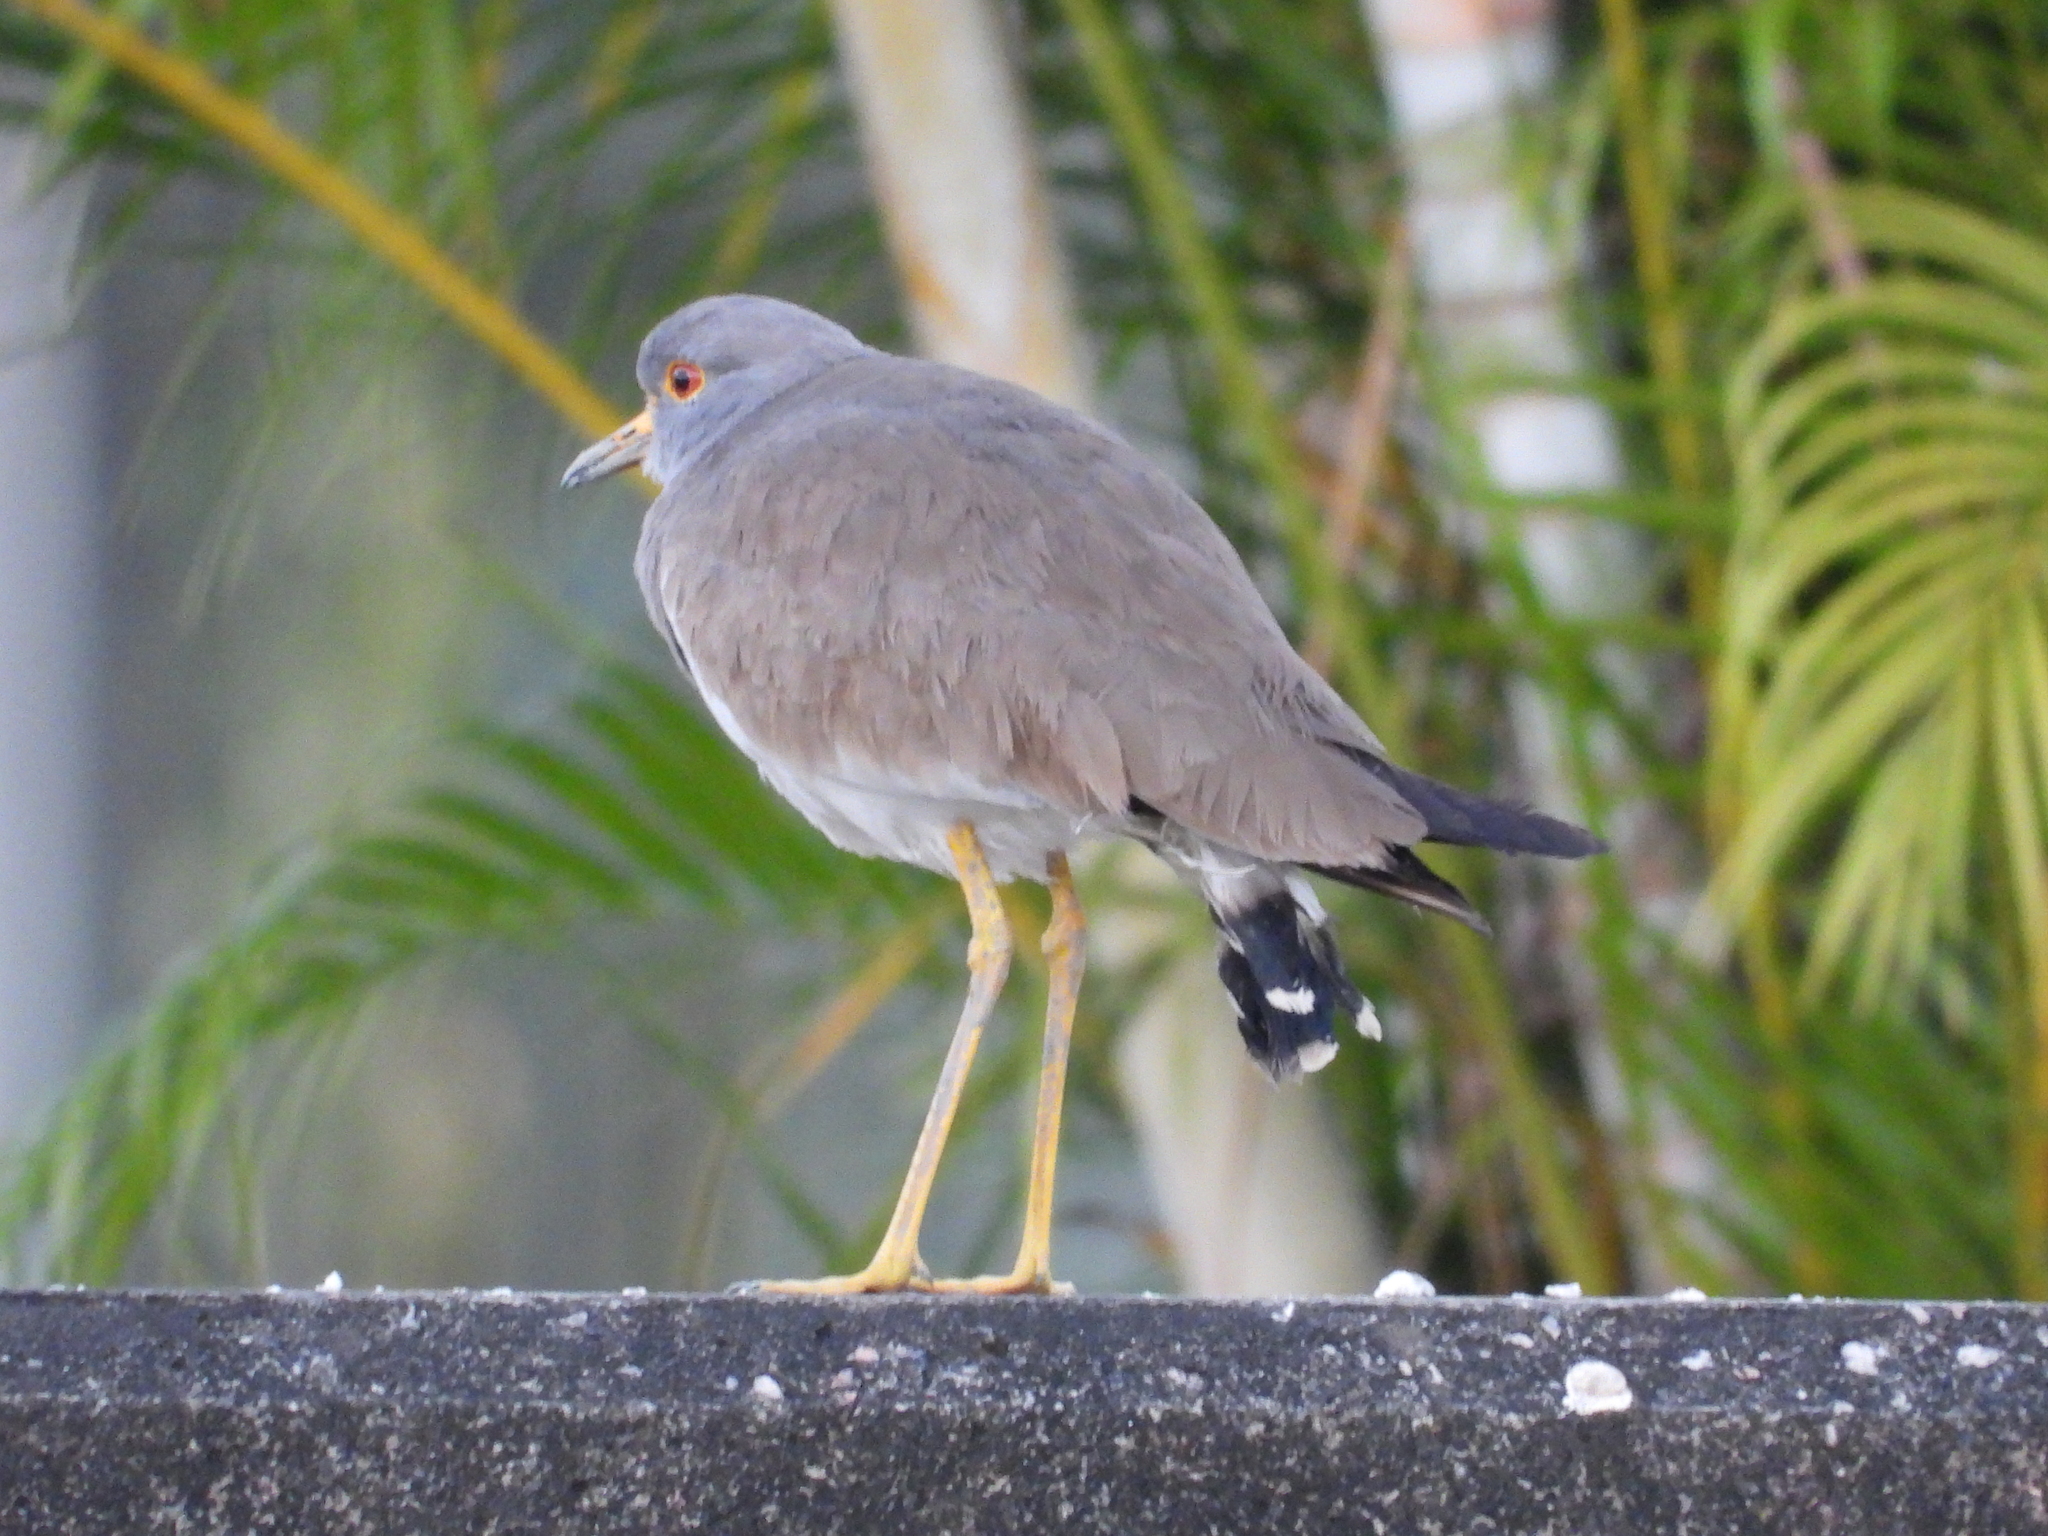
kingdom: Animalia
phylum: Chordata
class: Aves
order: Charadriiformes
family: Charadriidae
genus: Vanellus
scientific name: Vanellus cinereus
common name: Grey-headed lapwing
